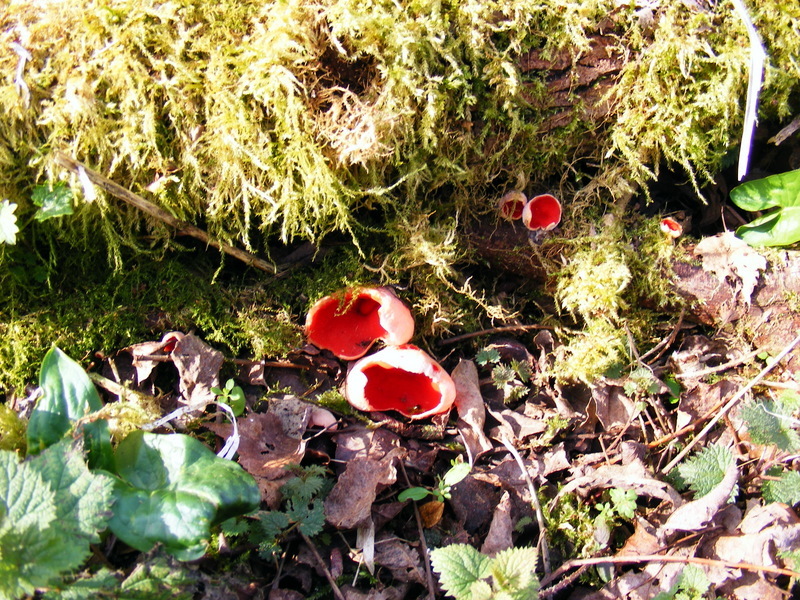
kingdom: Fungi
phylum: Ascomycota
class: Pezizomycetes
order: Pezizales
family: Sarcoscyphaceae
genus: Sarcoscypha
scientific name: Sarcoscypha
